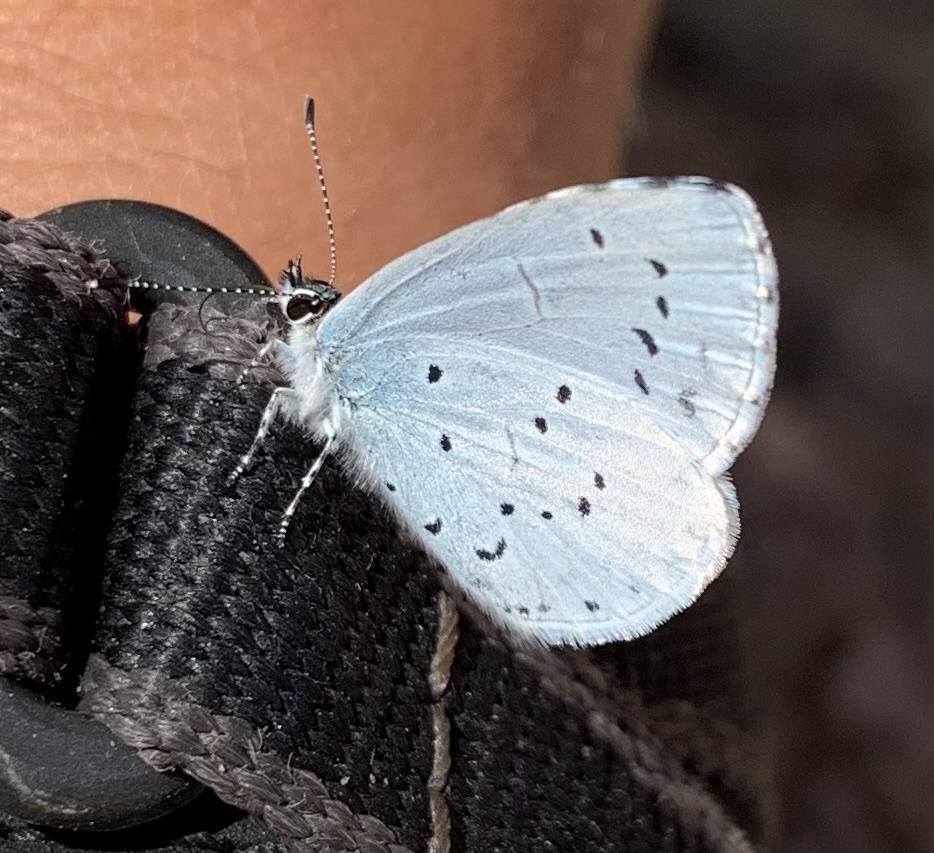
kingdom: Animalia
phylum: Arthropoda
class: Insecta
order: Lepidoptera
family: Lycaenidae
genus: Celastrina
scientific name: Celastrina argiolus
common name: Holly blue
